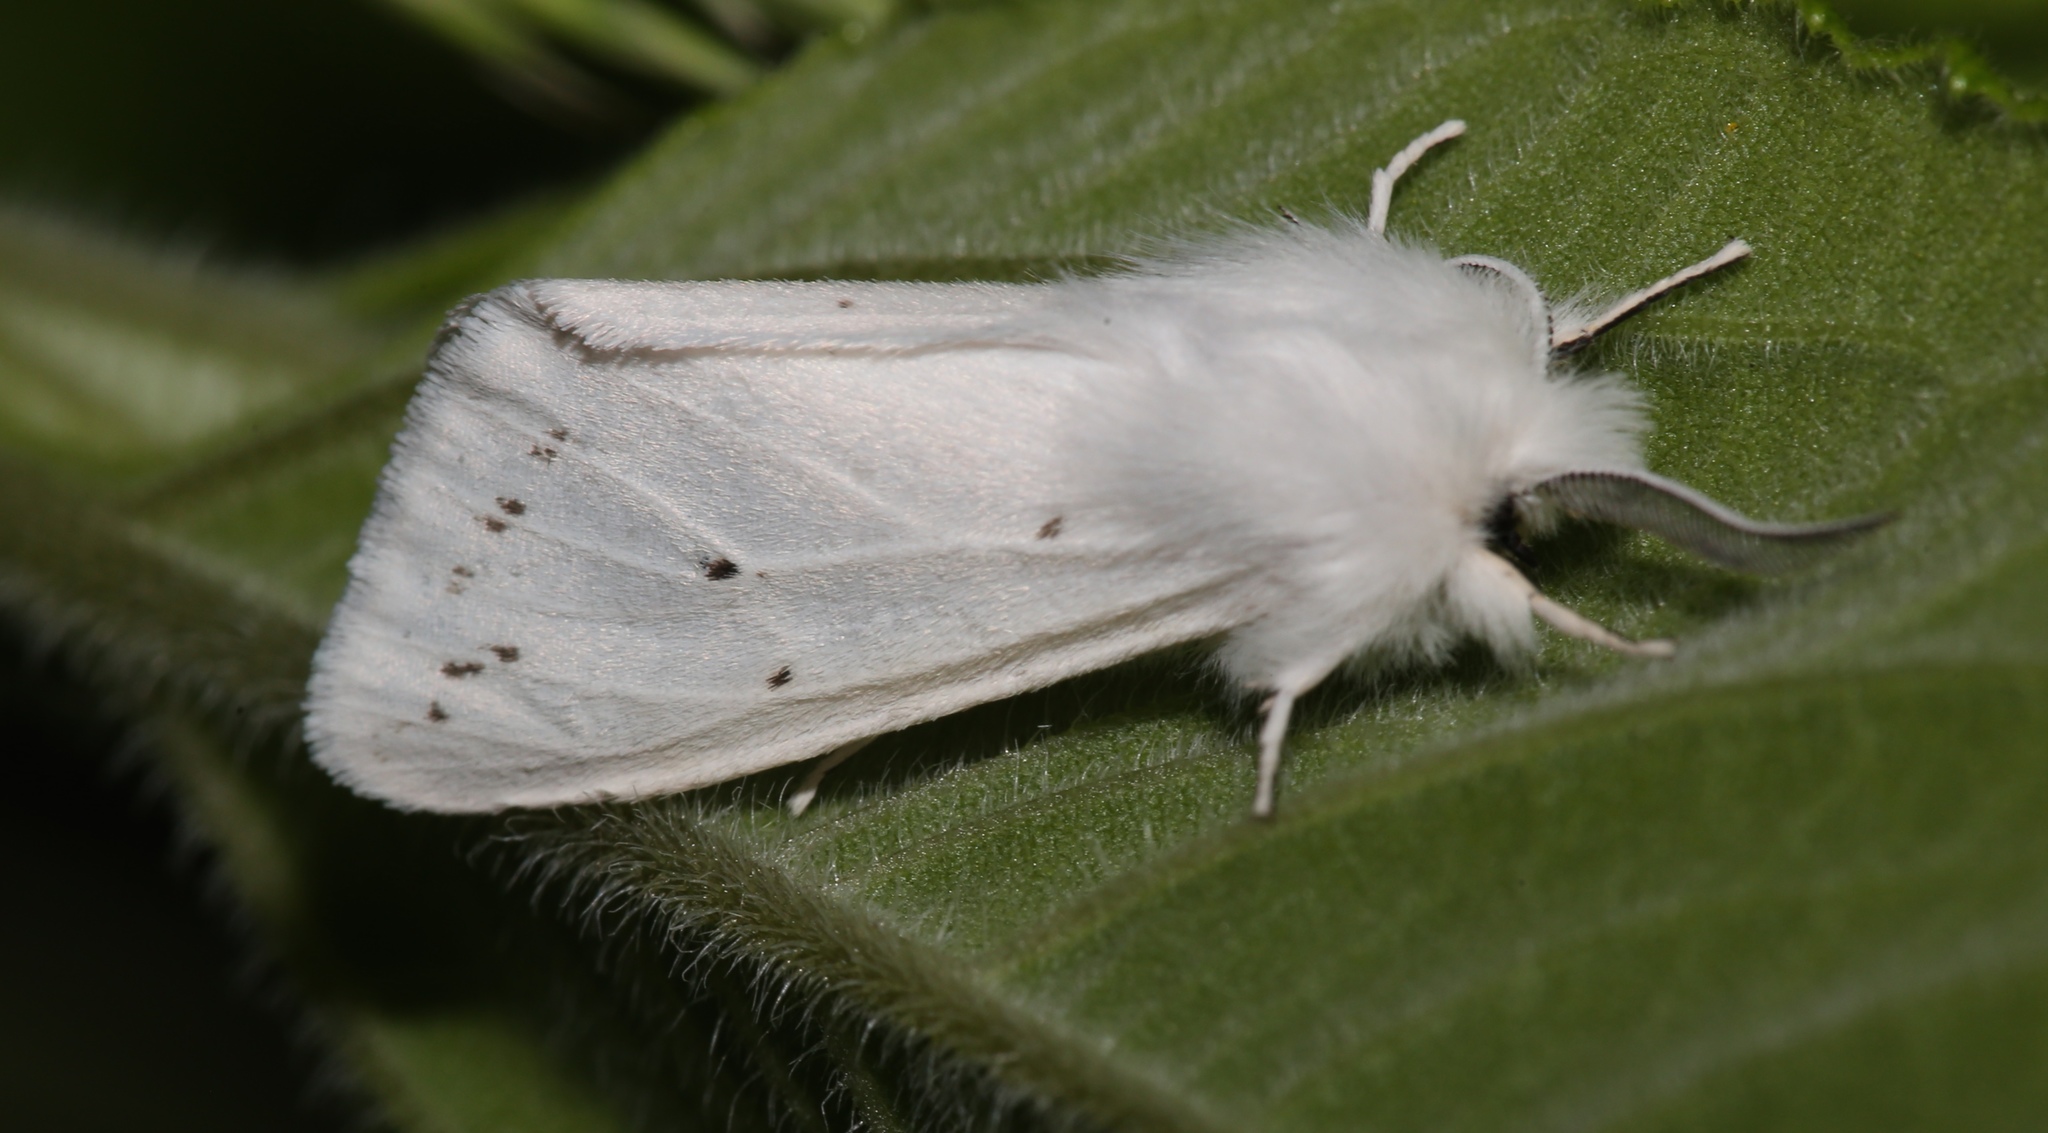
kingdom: Animalia
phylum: Arthropoda
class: Insecta
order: Lepidoptera
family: Erebidae
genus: Spilosoma
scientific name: Spilosoma congrua
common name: Agreeable tiger moth
